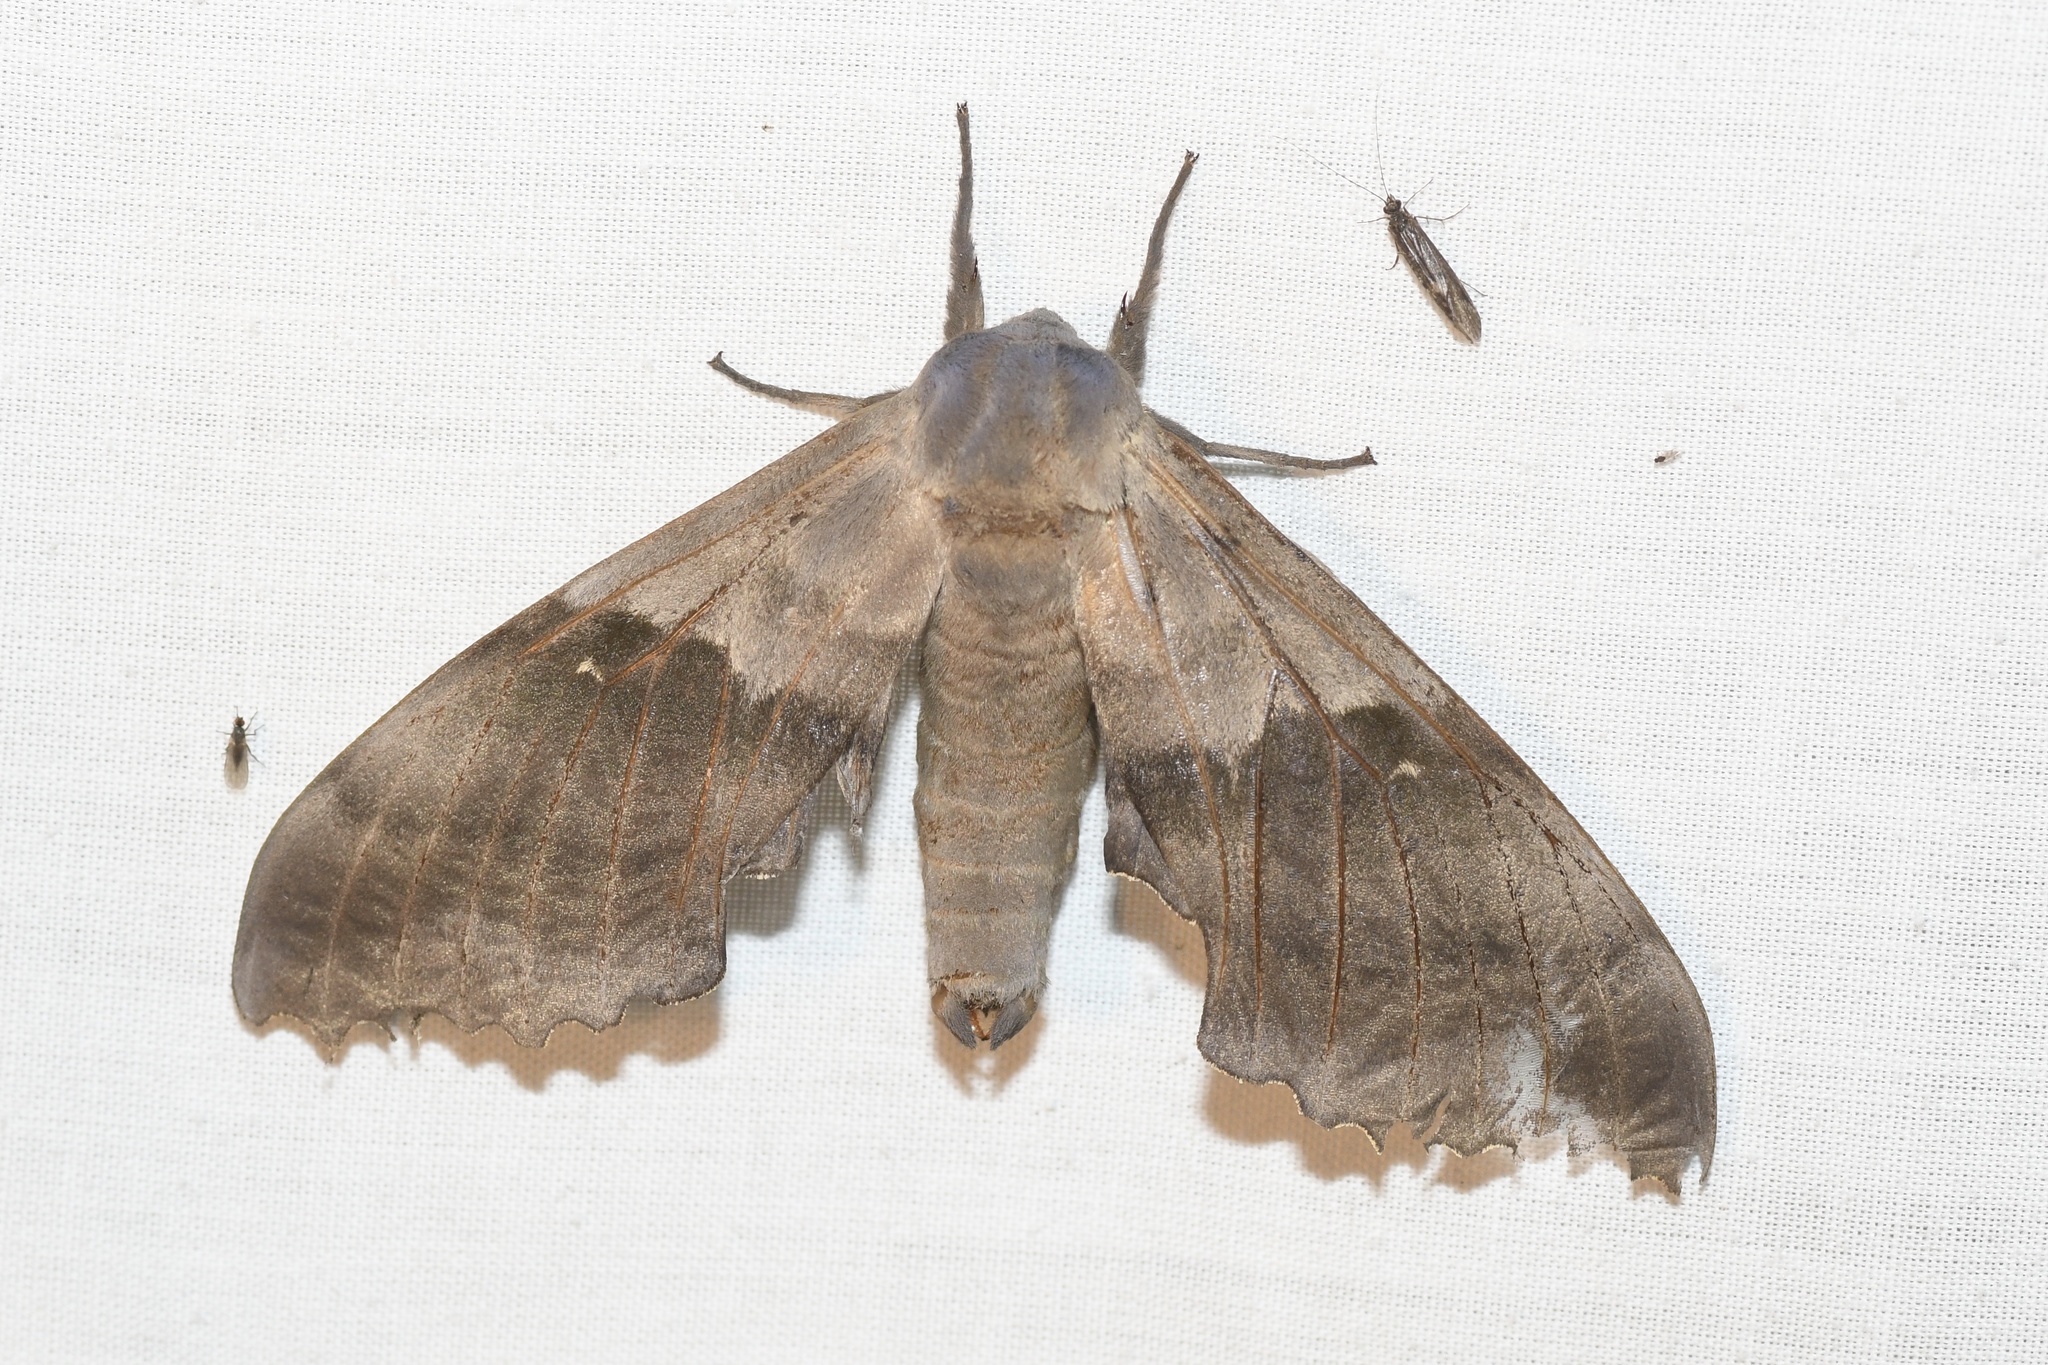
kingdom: Animalia
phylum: Arthropoda
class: Insecta
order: Lepidoptera
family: Sphingidae
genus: Pachysphinx
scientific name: Pachysphinx modesta
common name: Big poplar sphinx
